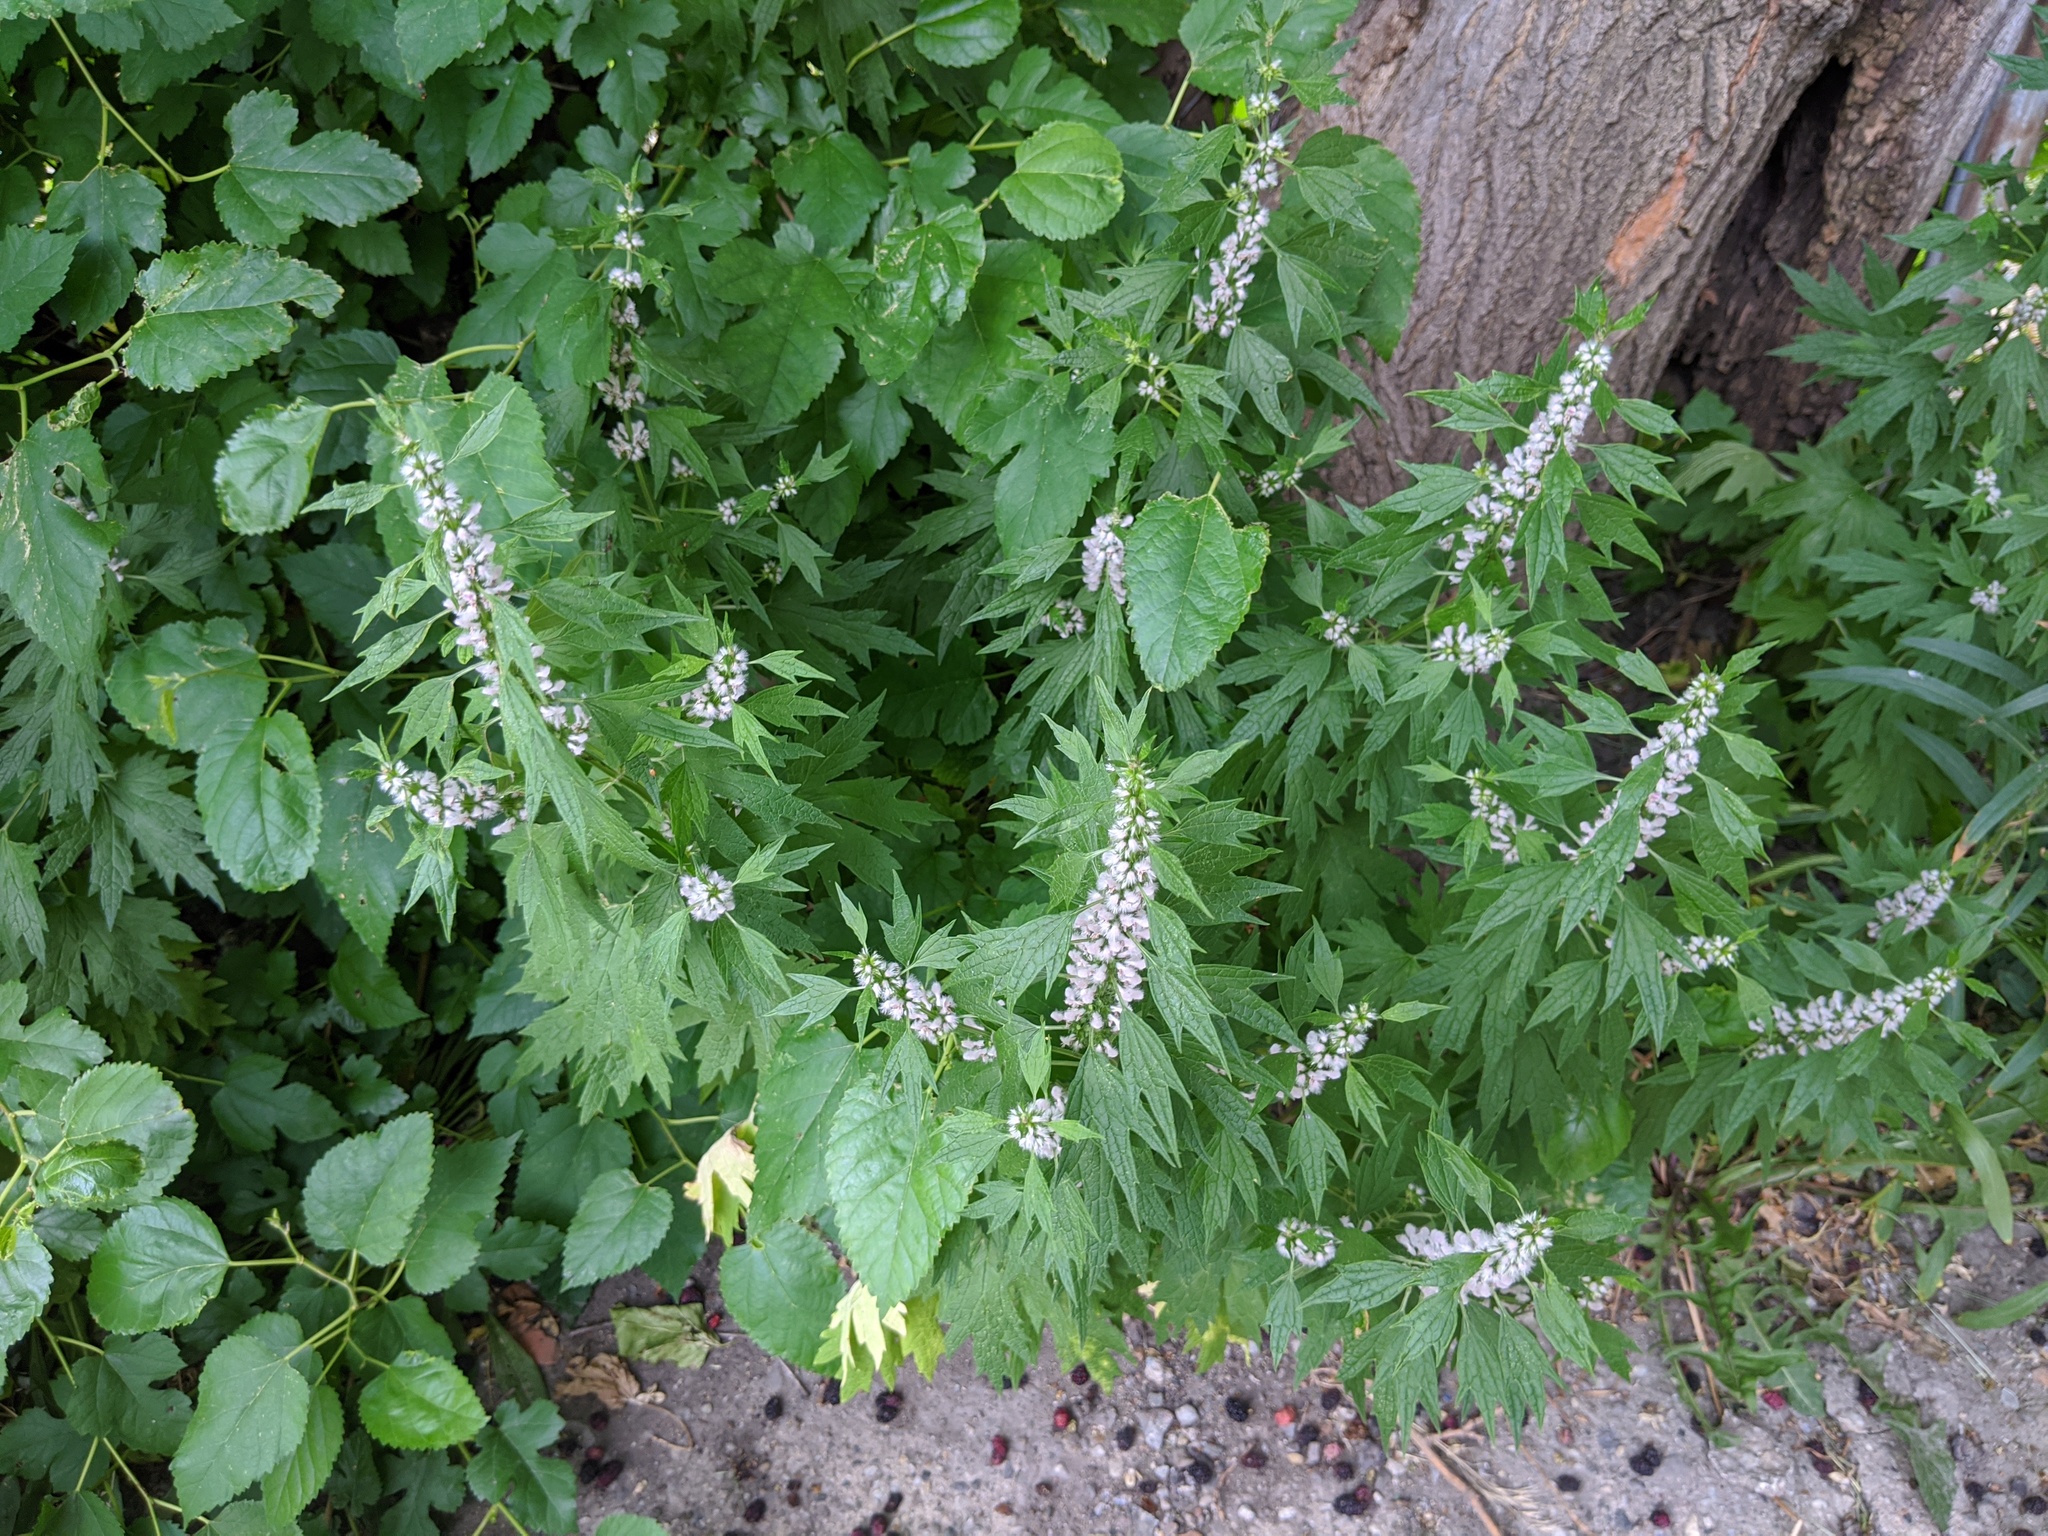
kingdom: Plantae
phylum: Tracheophyta
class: Magnoliopsida
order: Lamiales
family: Lamiaceae
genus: Leonurus
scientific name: Leonurus cardiaca
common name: Motherwort
